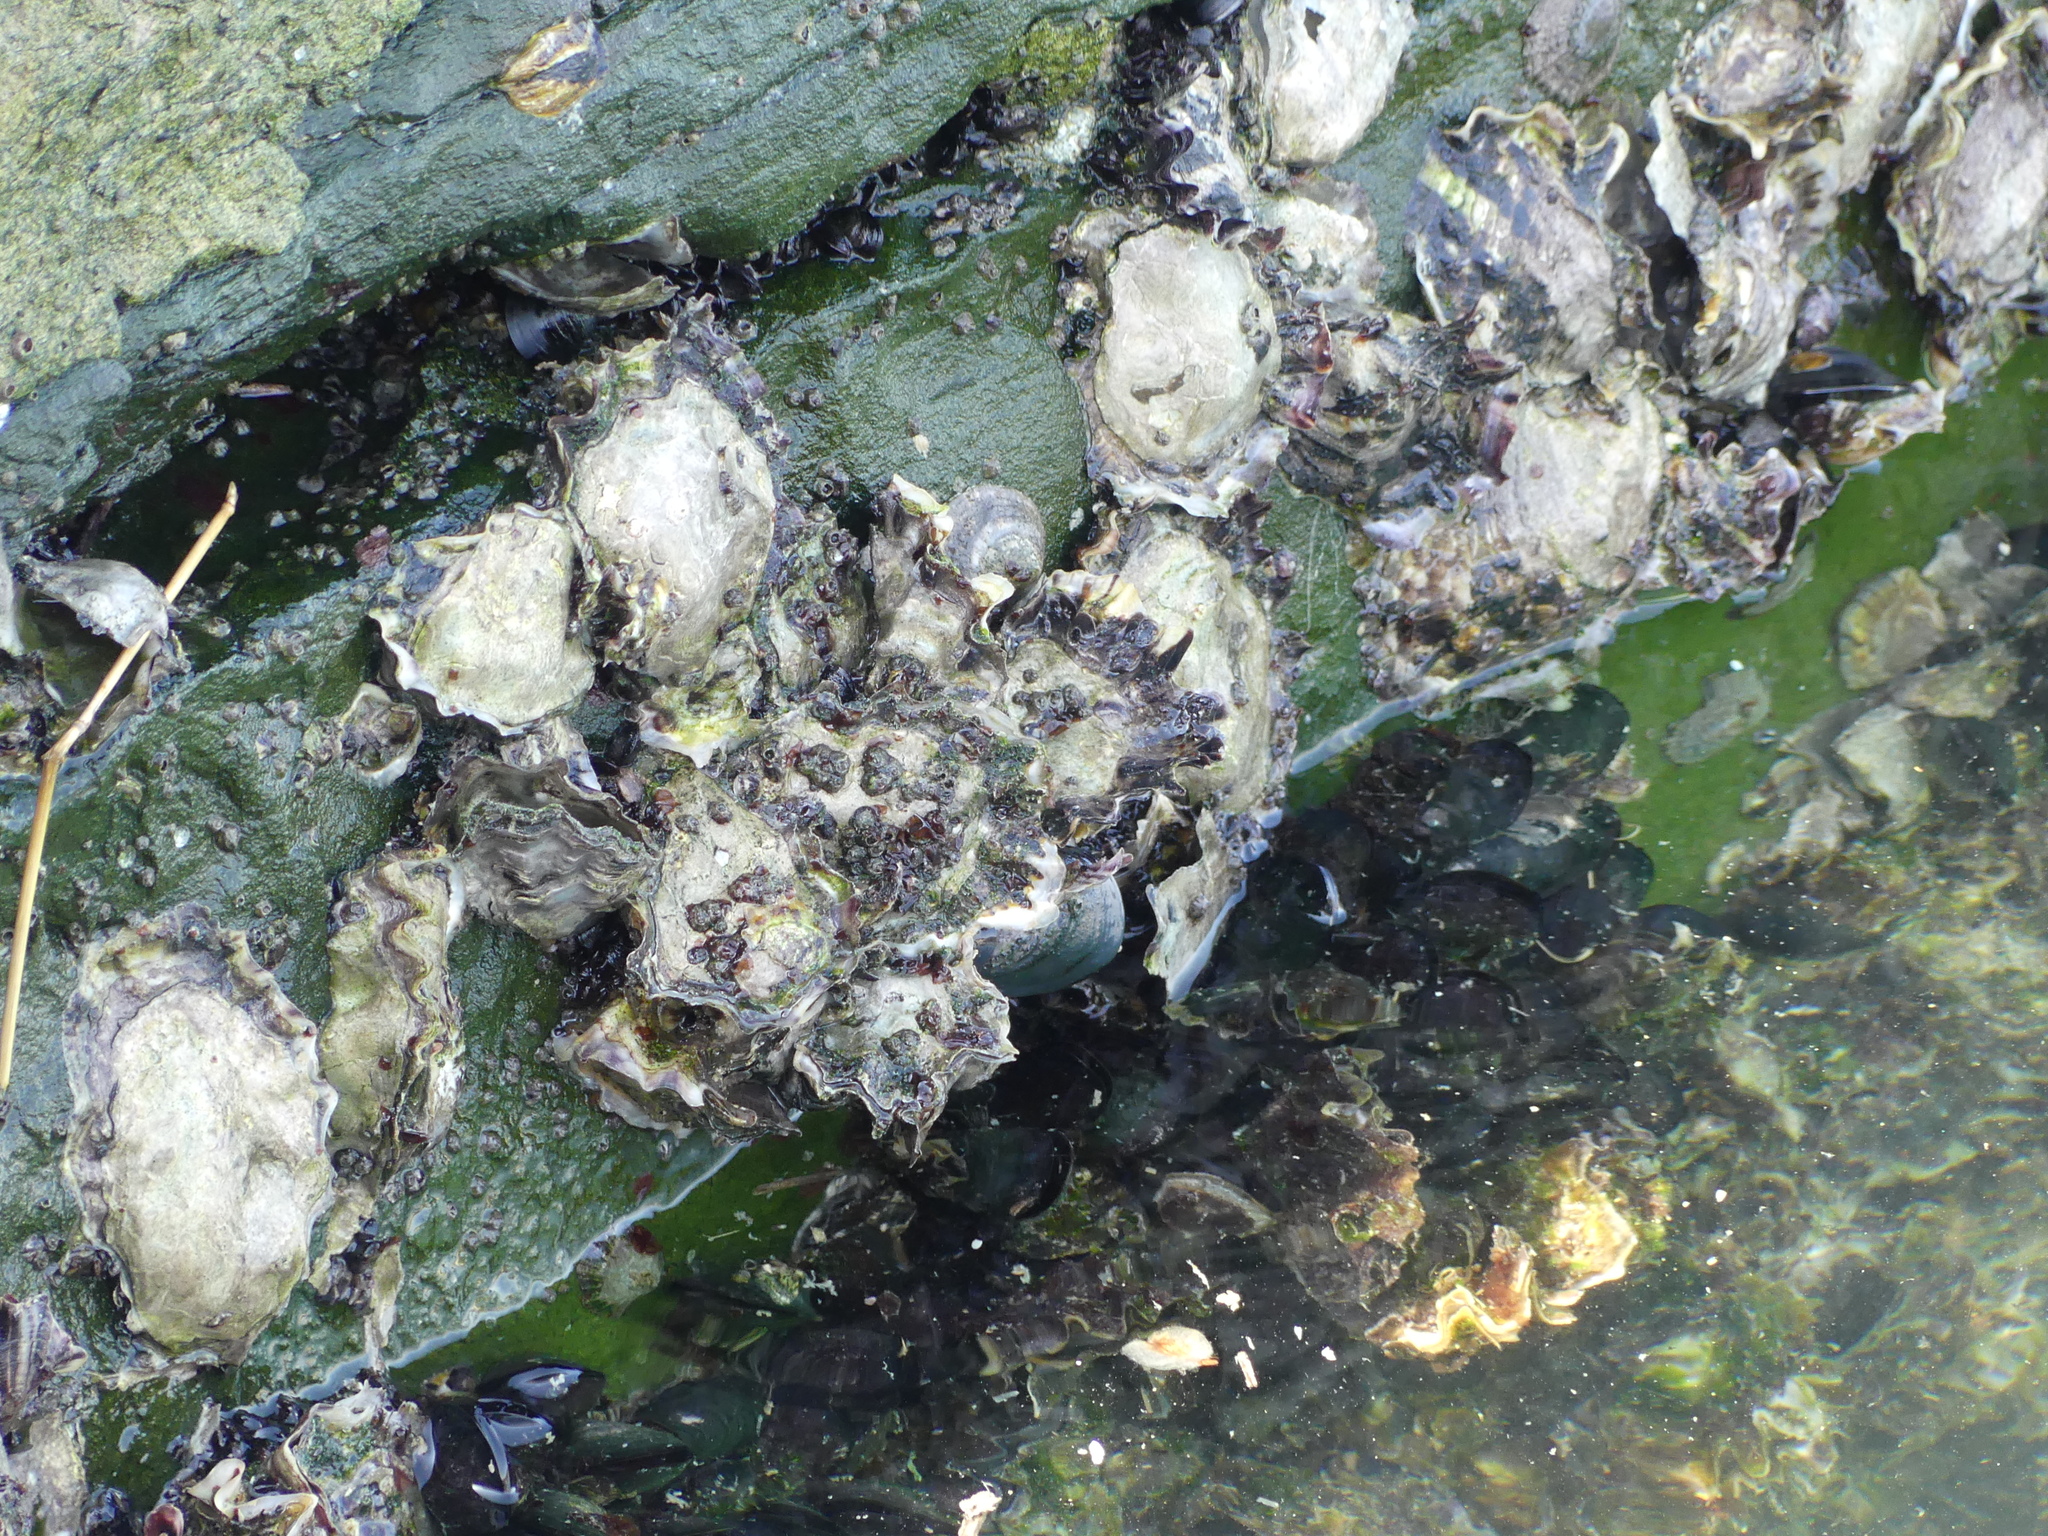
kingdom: Animalia
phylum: Mollusca
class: Bivalvia
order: Ostreida
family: Ostreidae
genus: Magallana
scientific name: Magallana gigas
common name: Pacific oyster
